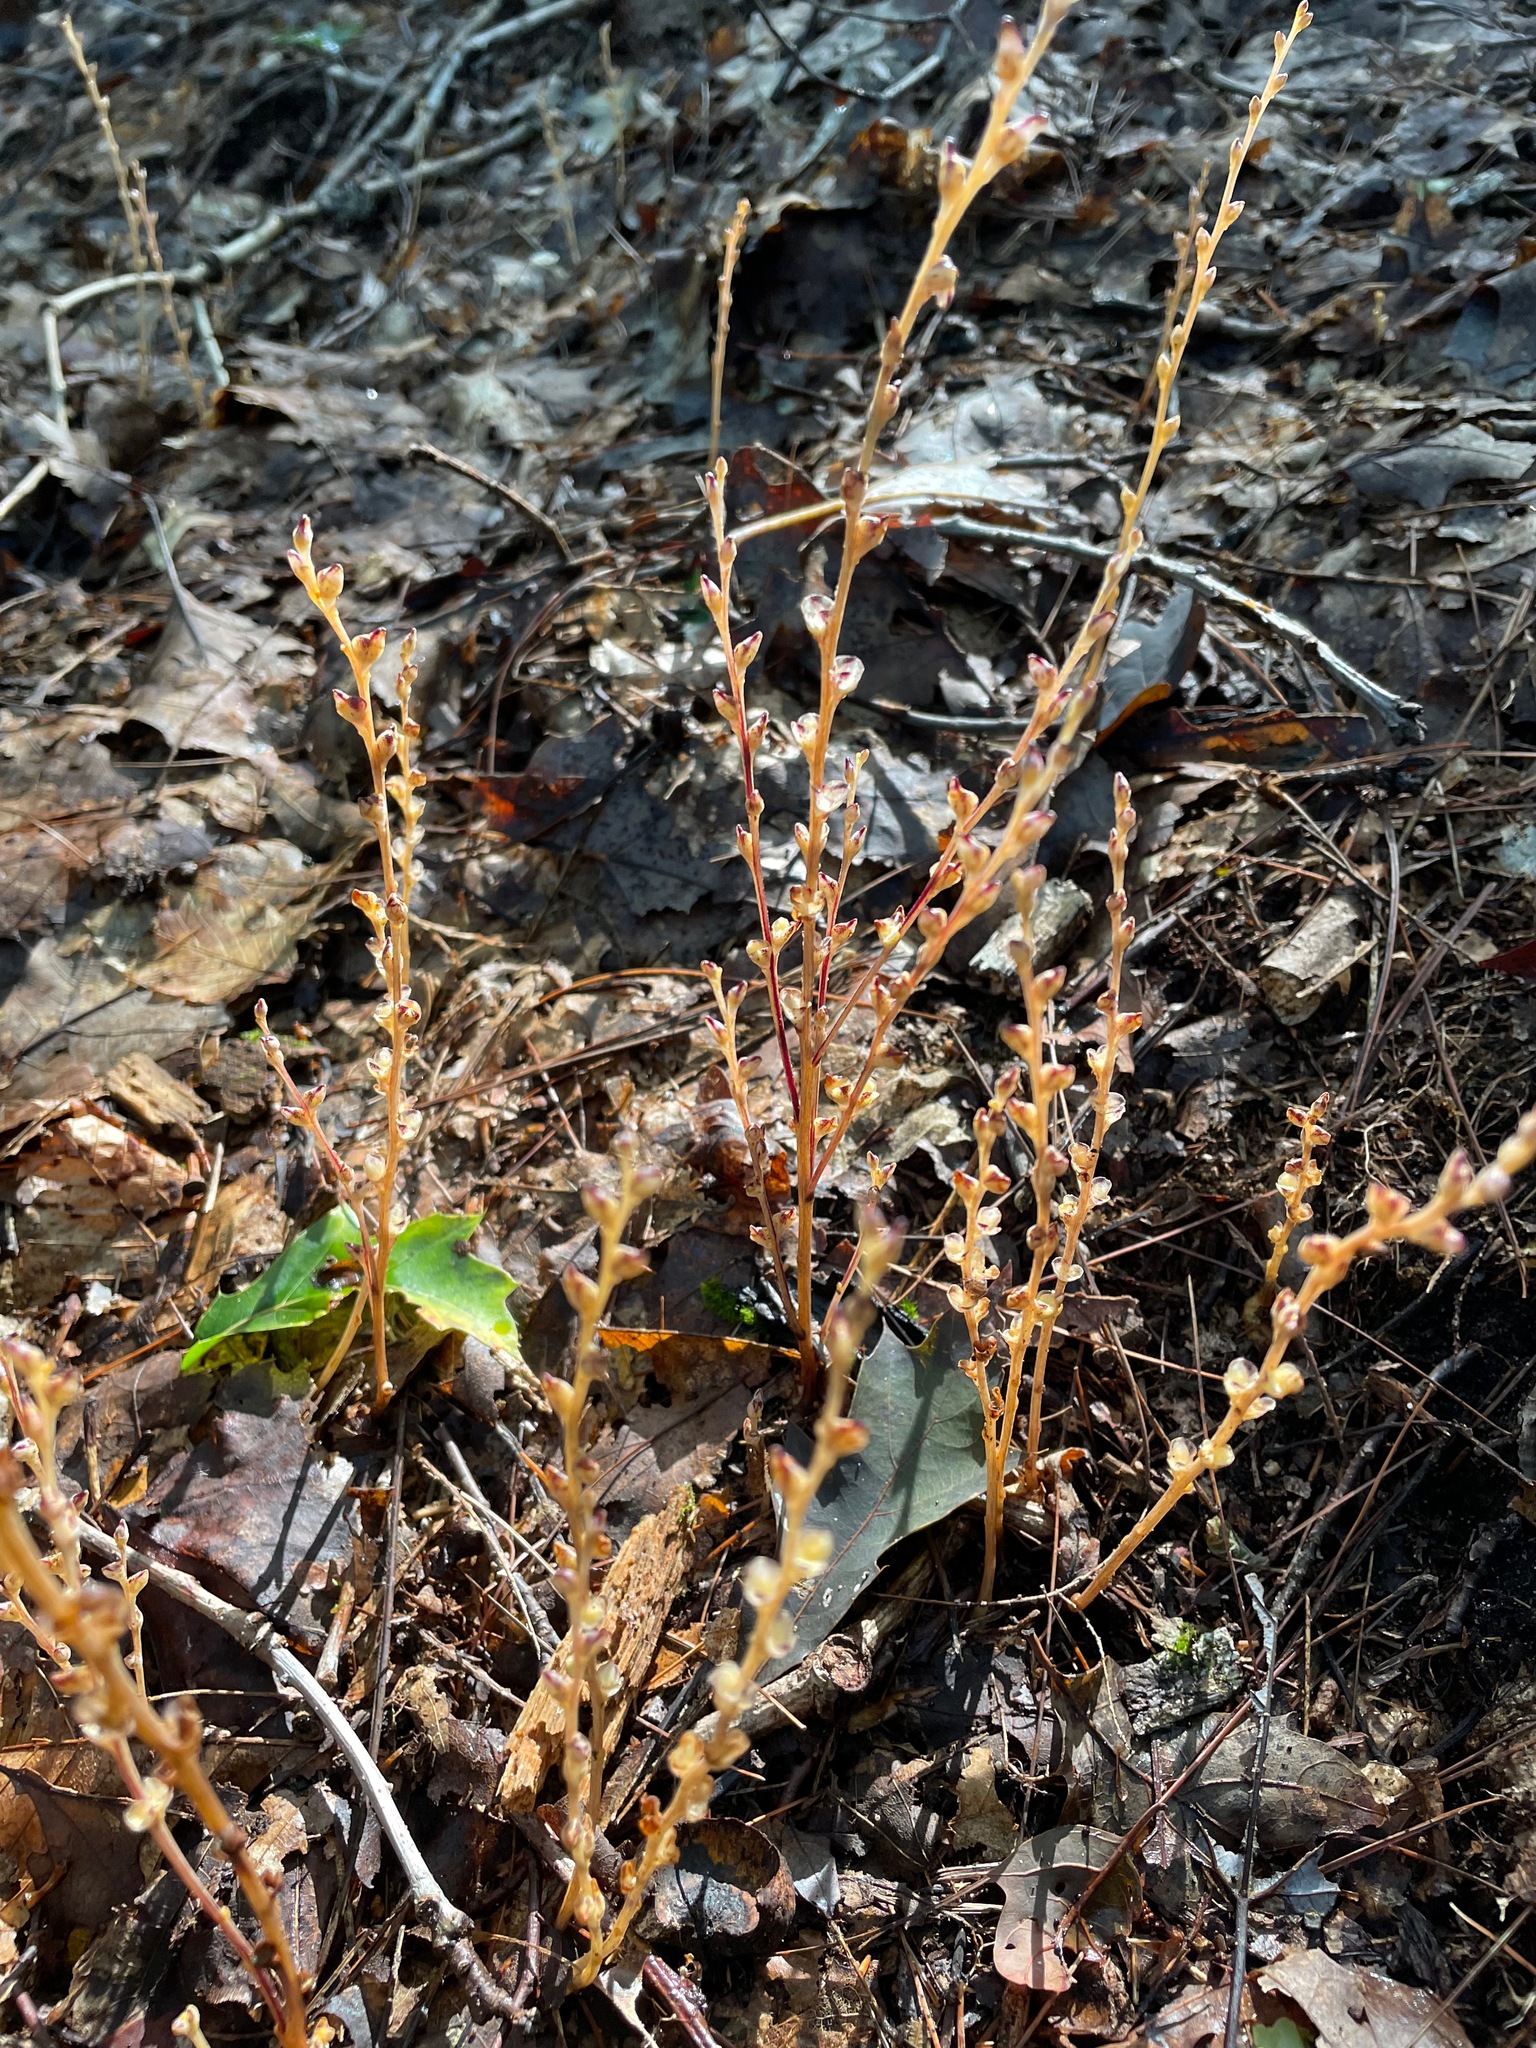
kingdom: Plantae
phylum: Tracheophyta
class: Magnoliopsida
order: Lamiales
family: Orobanchaceae
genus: Epifagus
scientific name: Epifagus virginiana
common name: Beechdrops
